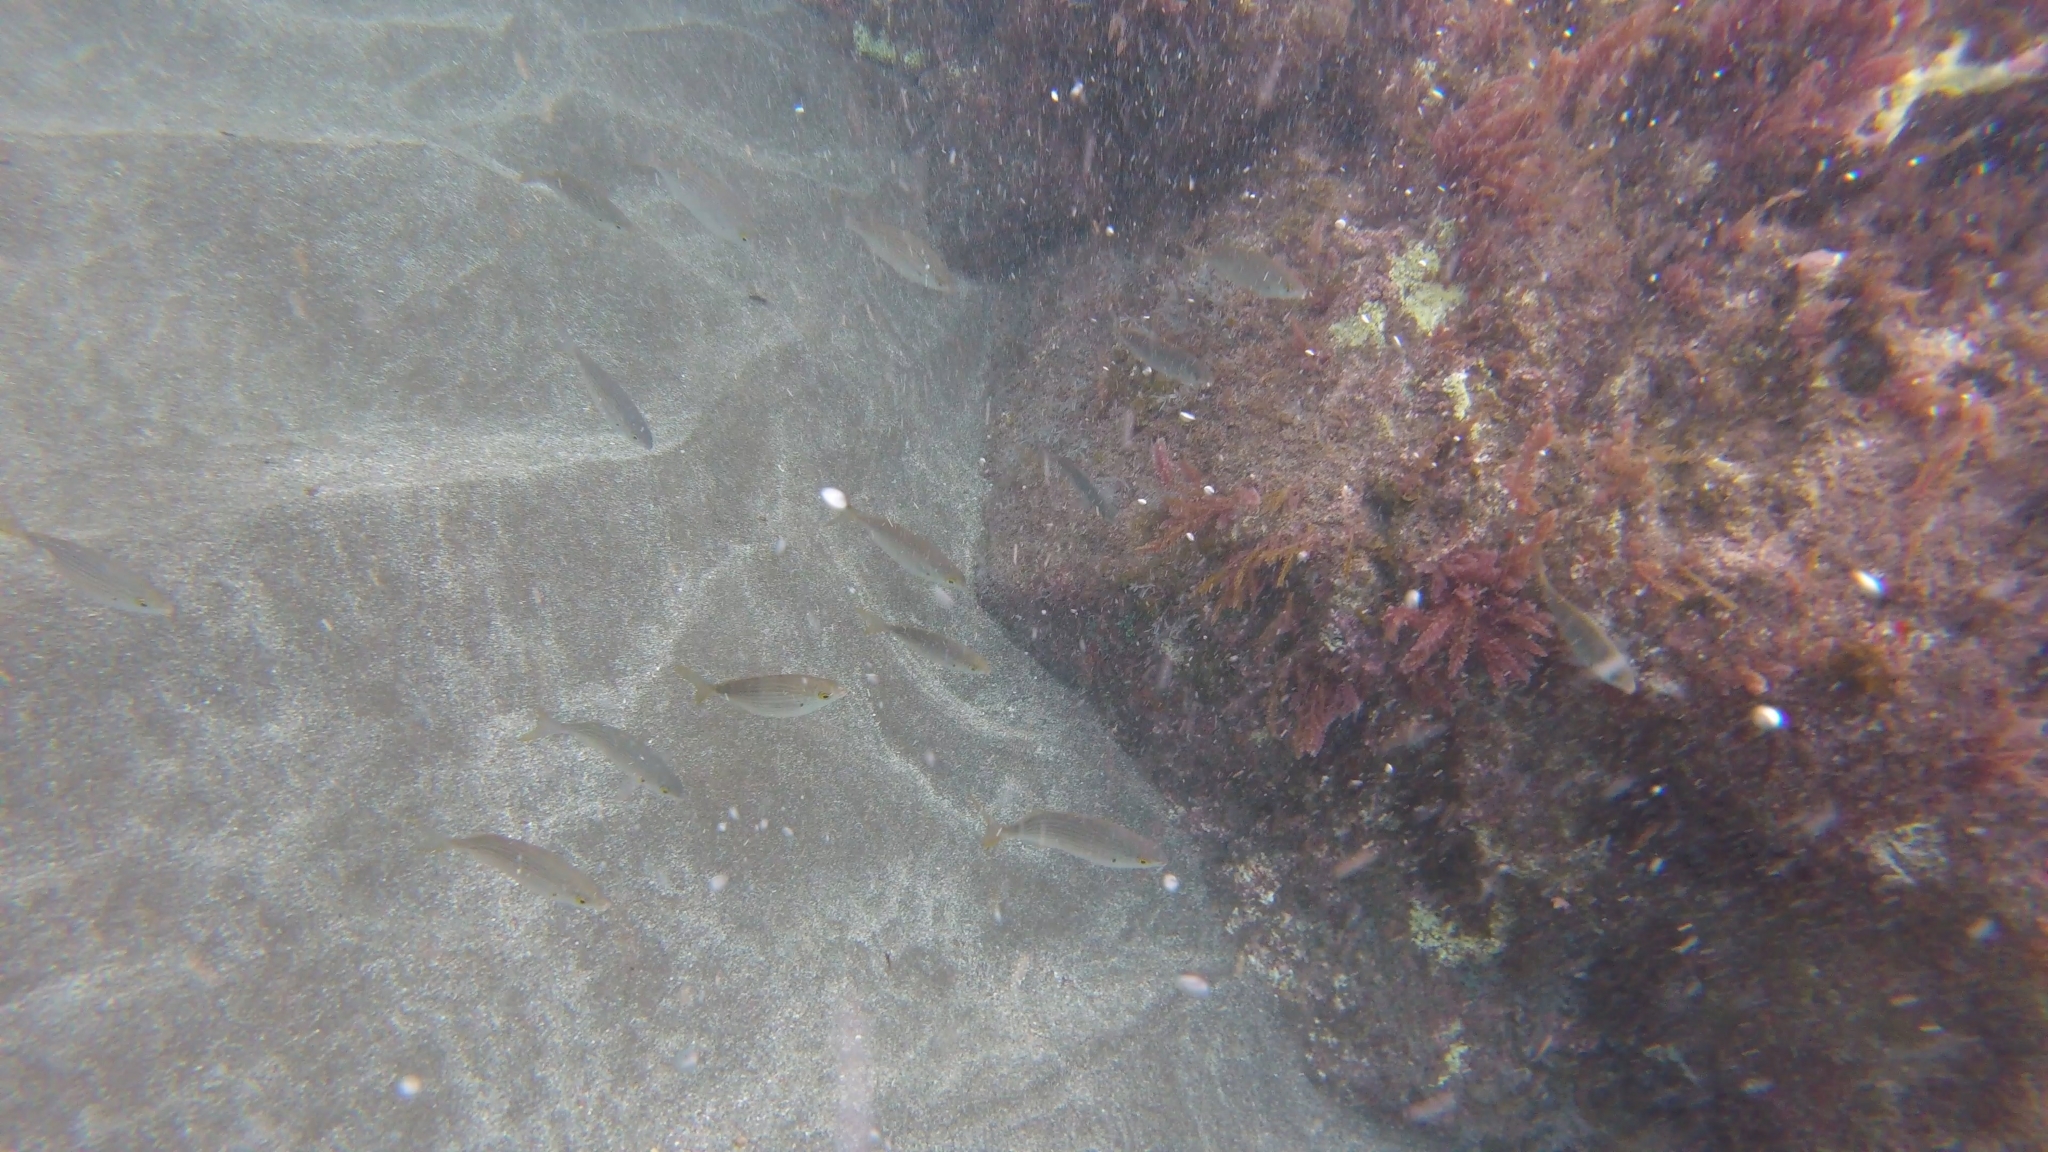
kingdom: Animalia
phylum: Chordata
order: Perciformes
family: Sparidae
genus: Sarpa
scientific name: Sarpa salpa
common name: Salema
